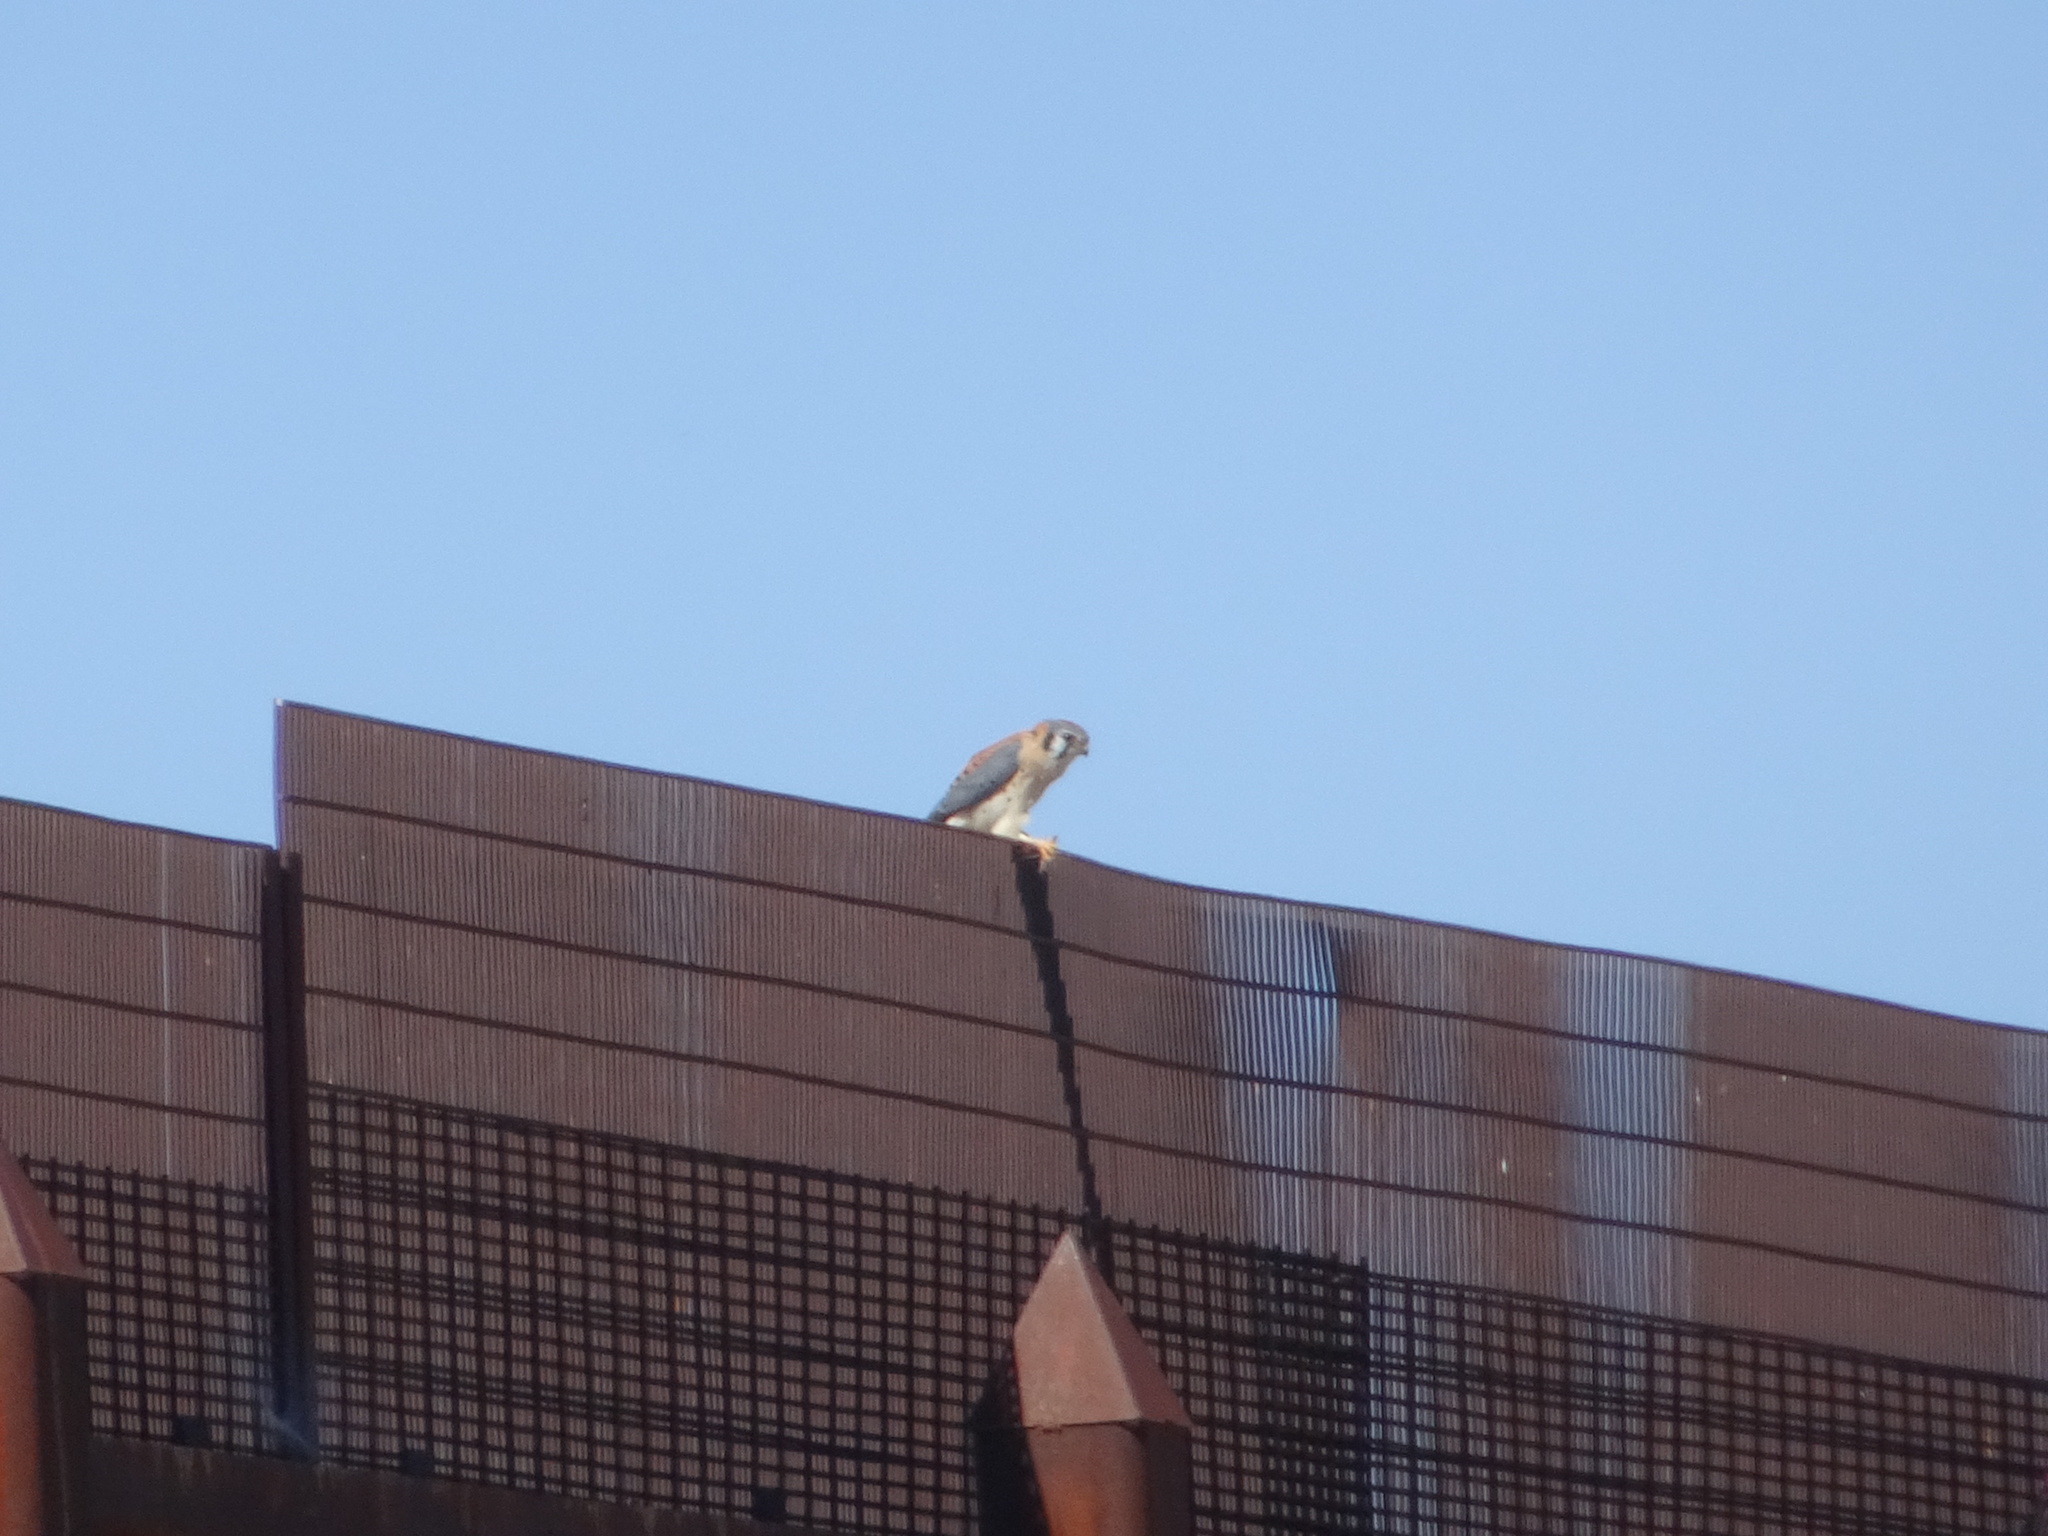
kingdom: Animalia
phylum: Chordata
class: Aves
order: Falconiformes
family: Falconidae
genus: Falco
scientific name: Falco sparverius
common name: American kestrel
